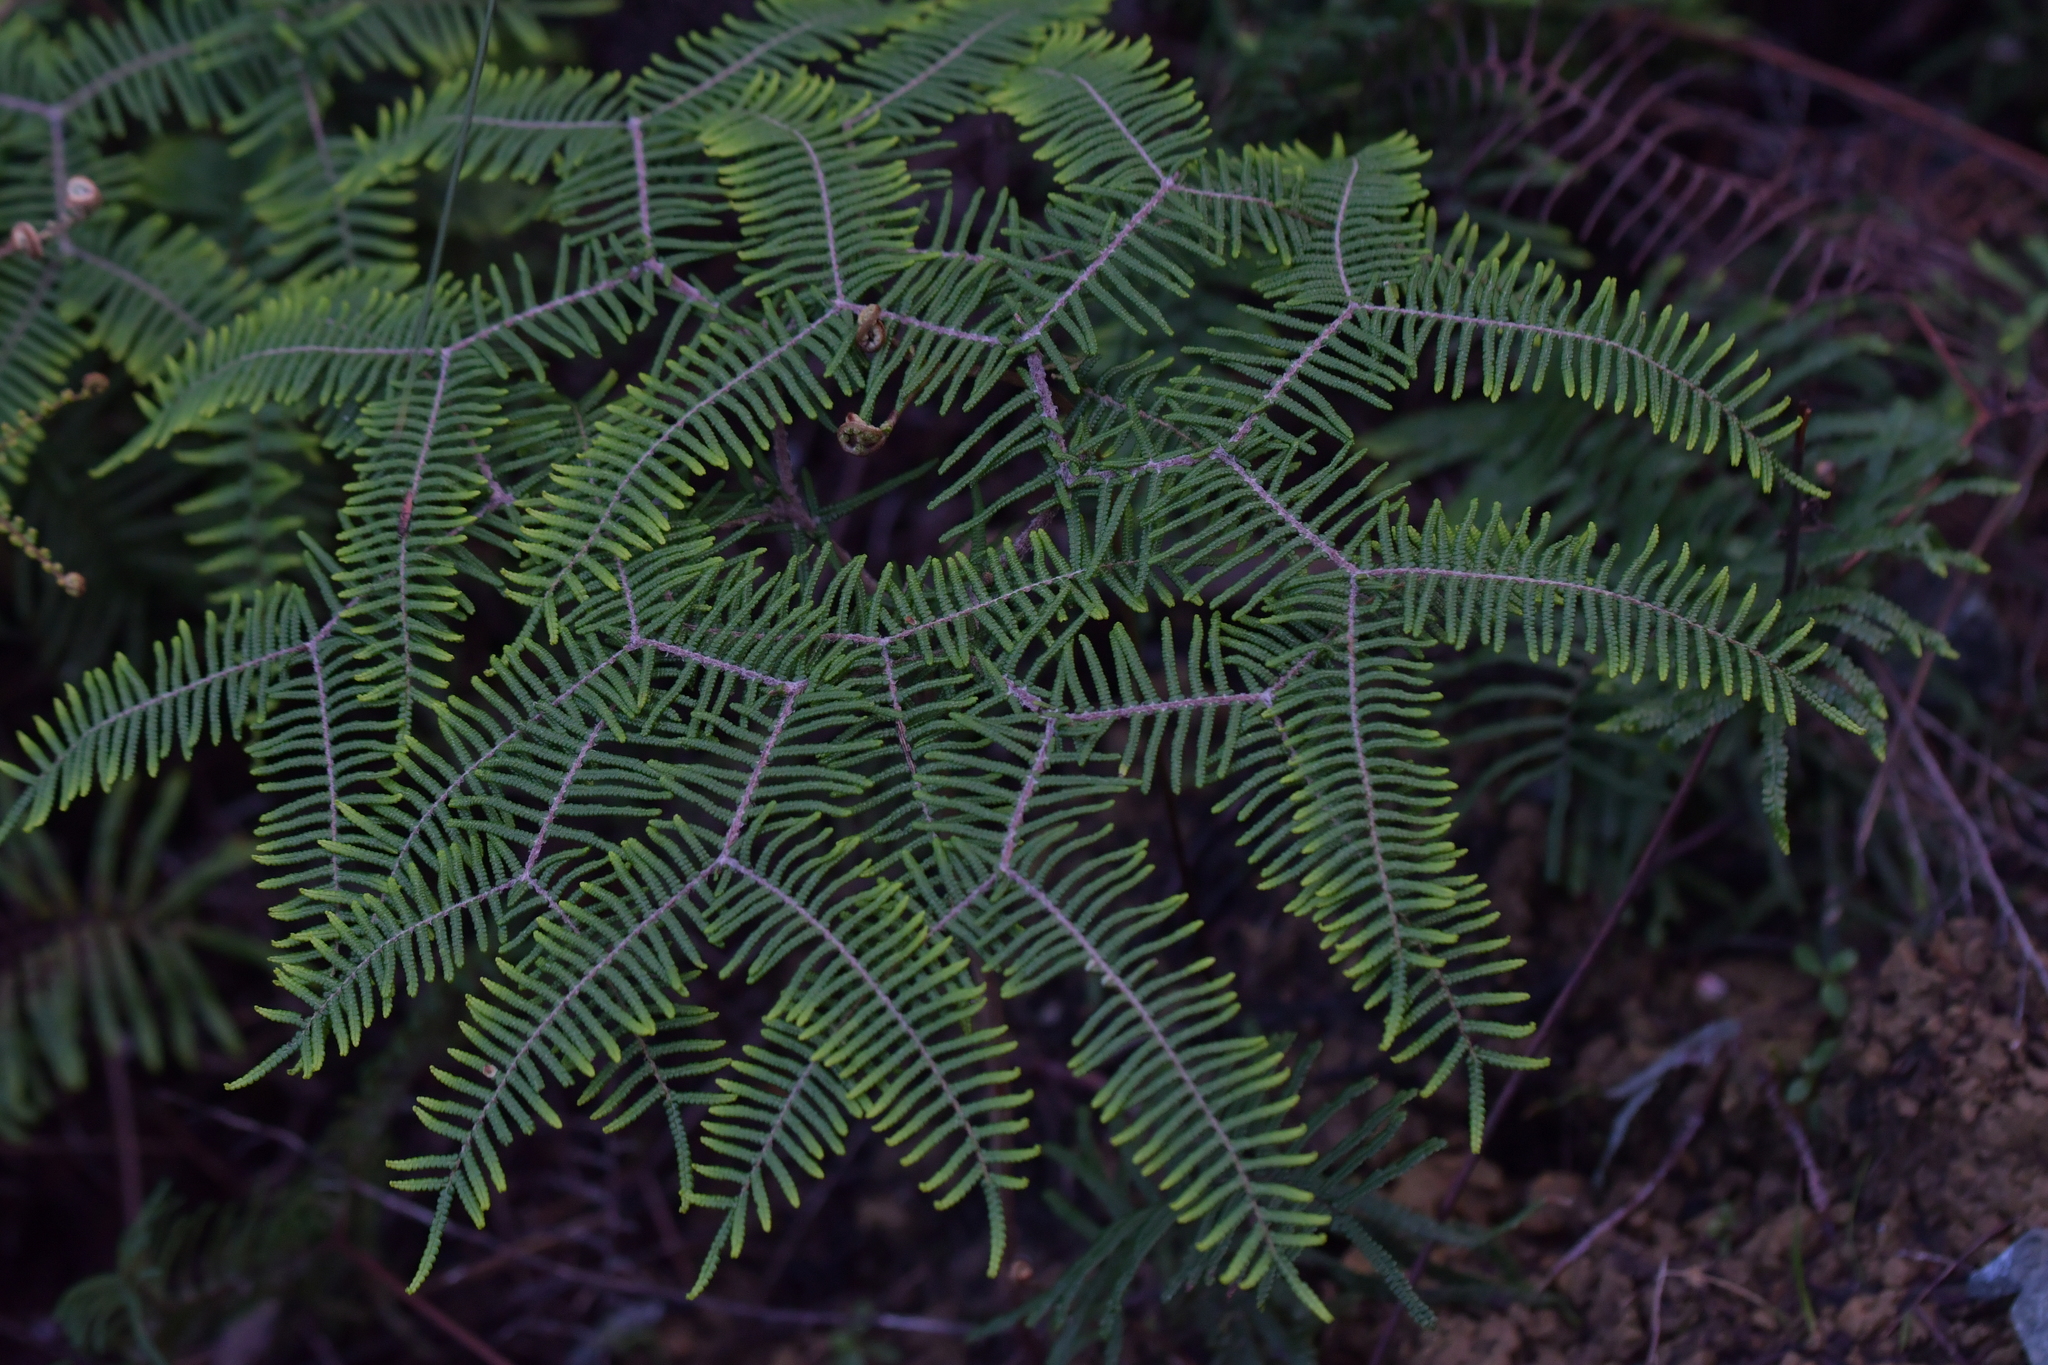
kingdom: Plantae
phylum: Tracheophyta
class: Polypodiopsida
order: Gleicheniales
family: Gleicheniaceae
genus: Gleichenia
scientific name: Gleichenia dicarpa
